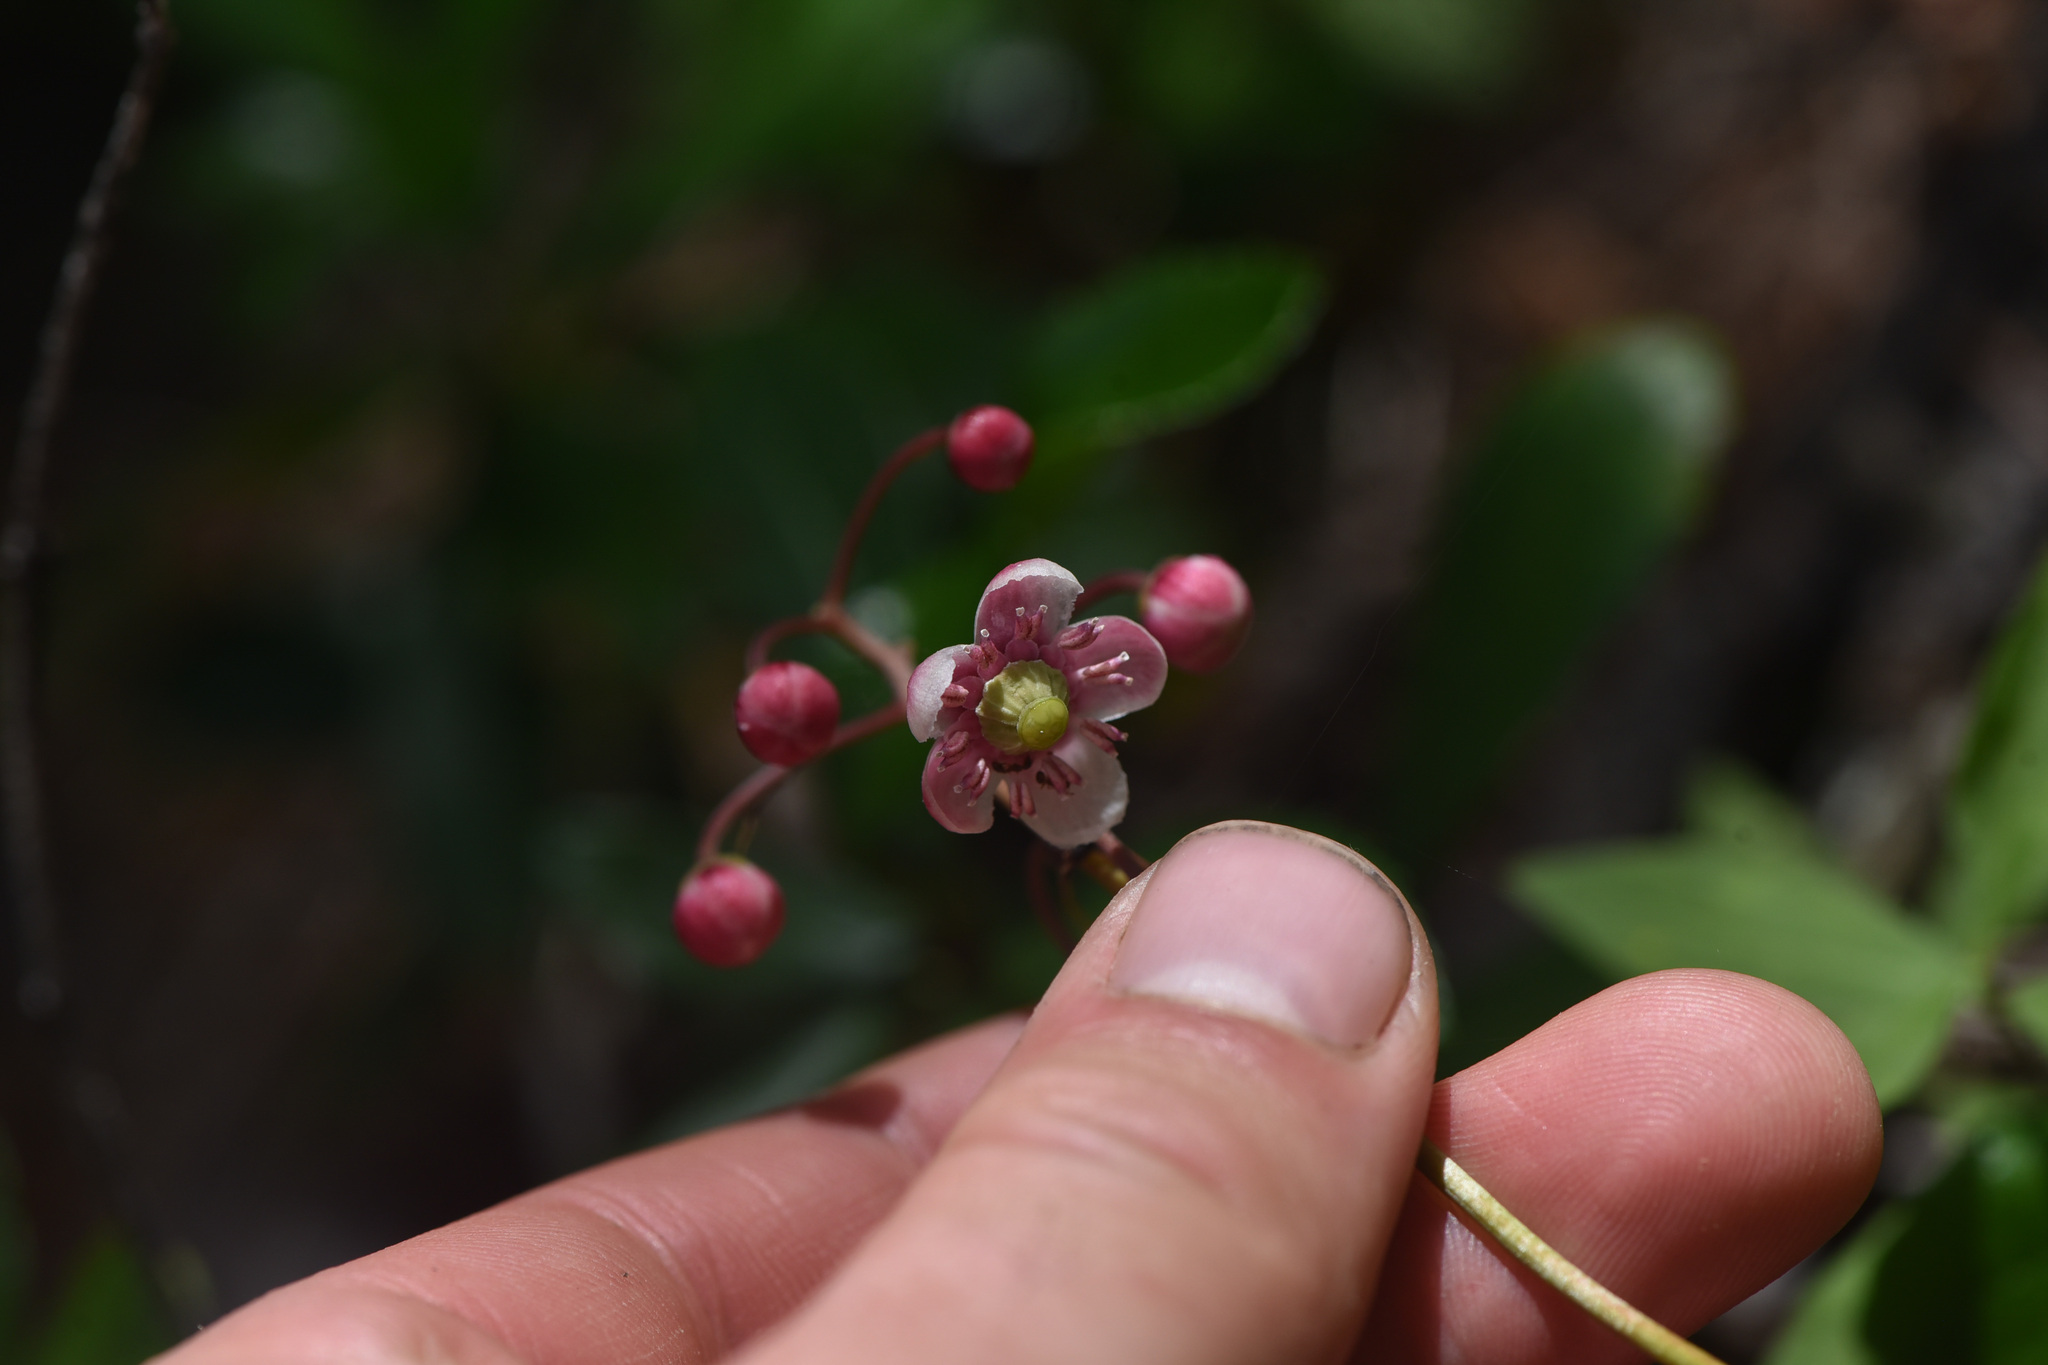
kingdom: Plantae
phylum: Tracheophyta
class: Magnoliopsida
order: Ericales
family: Ericaceae
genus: Chimaphila
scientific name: Chimaphila umbellata
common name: Pipsissewa
